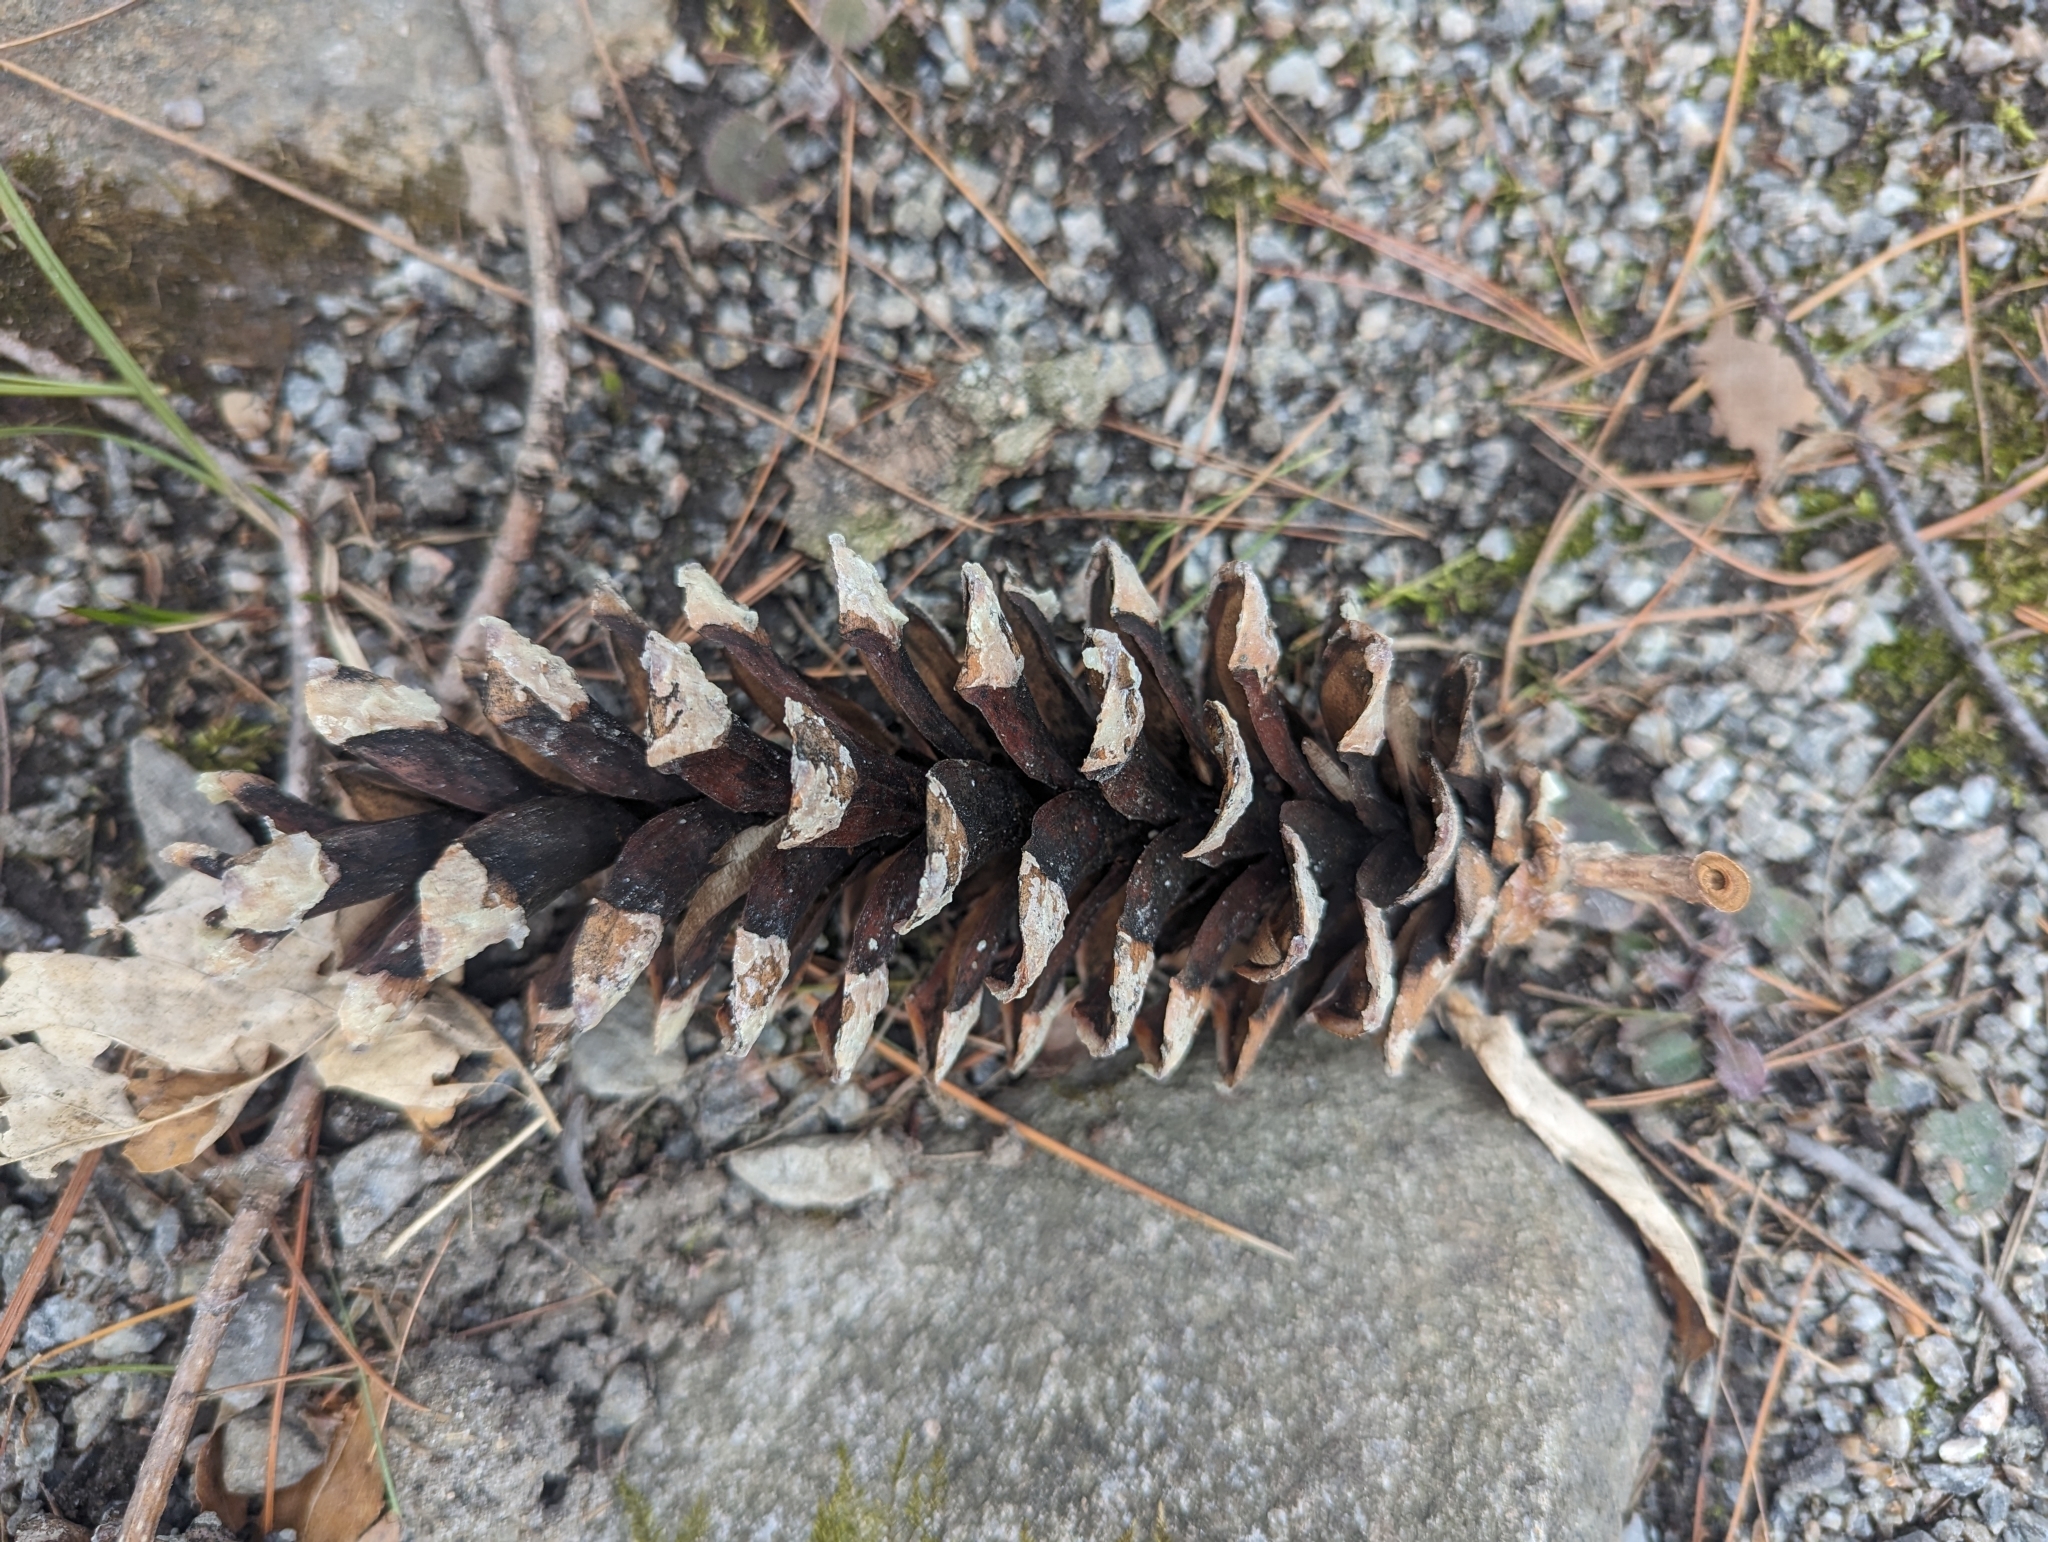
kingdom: Plantae
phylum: Tracheophyta
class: Pinopsida
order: Pinales
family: Pinaceae
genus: Pinus
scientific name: Pinus strobus
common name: Weymouth pine
